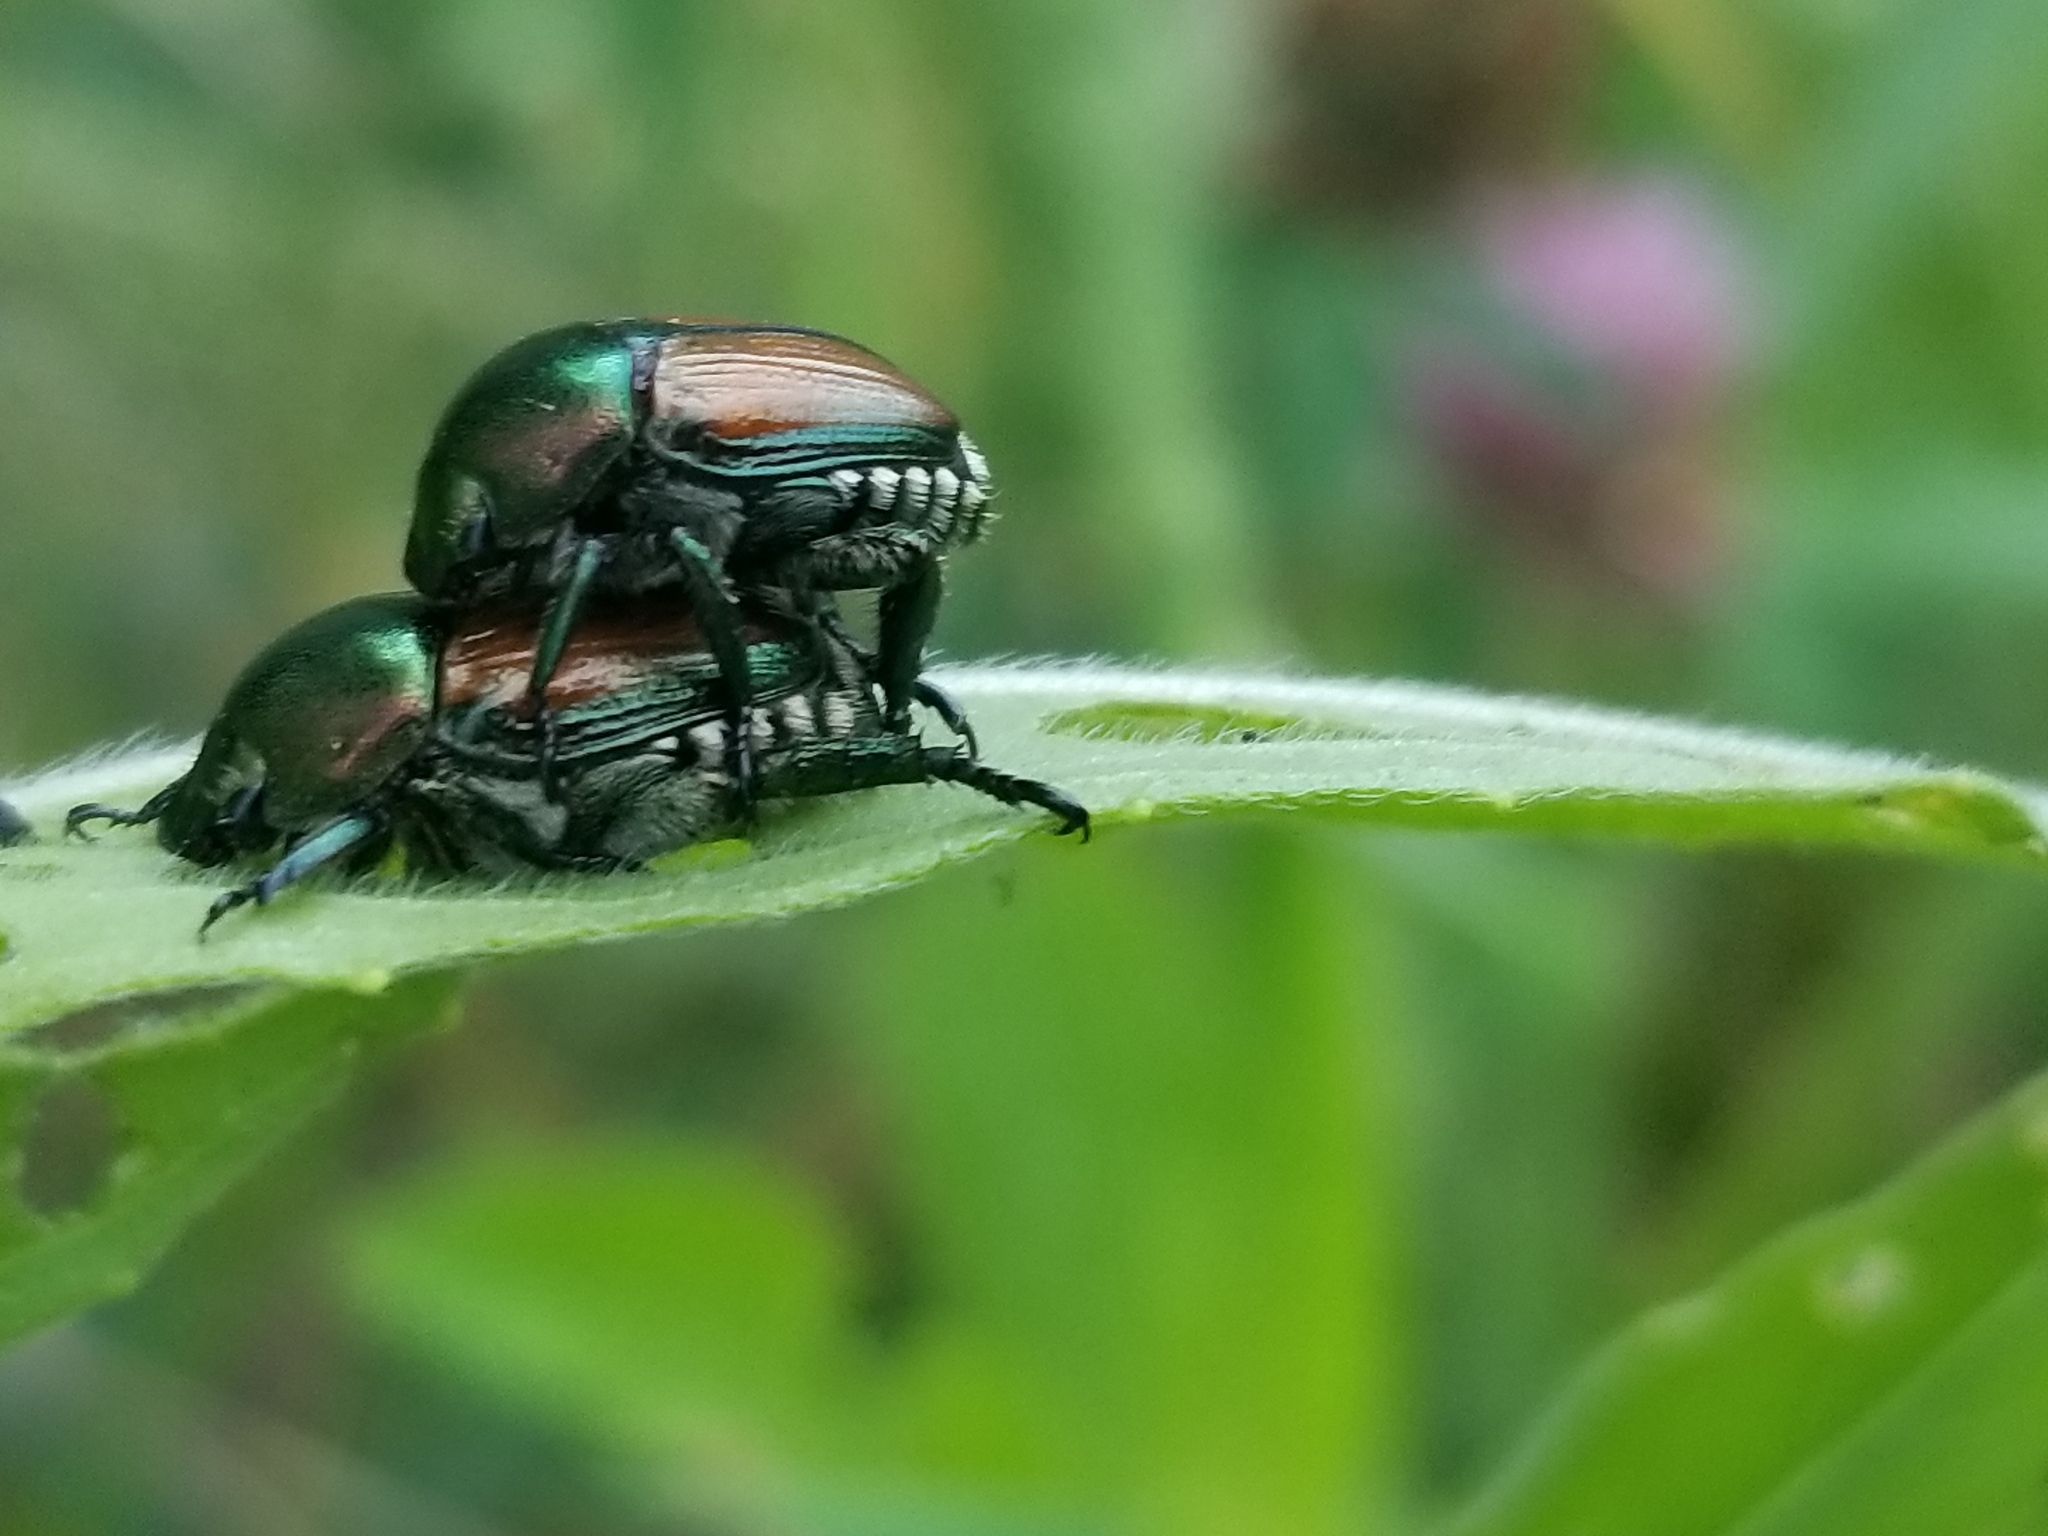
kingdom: Animalia
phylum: Arthropoda
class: Insecta
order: Coleoptera
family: Scarabaeidae
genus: Popillia
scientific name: Popillia japonica
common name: Japanese beetle
